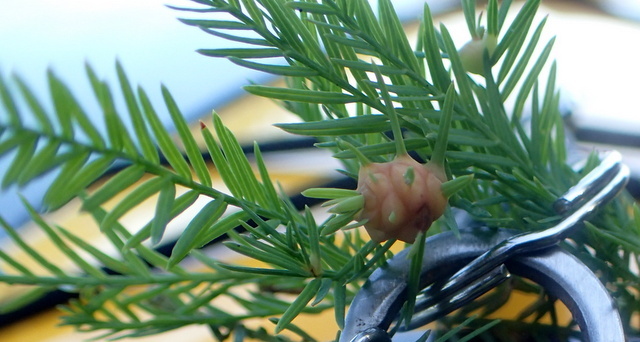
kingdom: Animalia
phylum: Arthropoda
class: Insecta
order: Diptera
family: Cecidomyiidae
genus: Taxodiomyia
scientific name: Taxodiomyia cupressiananassa
